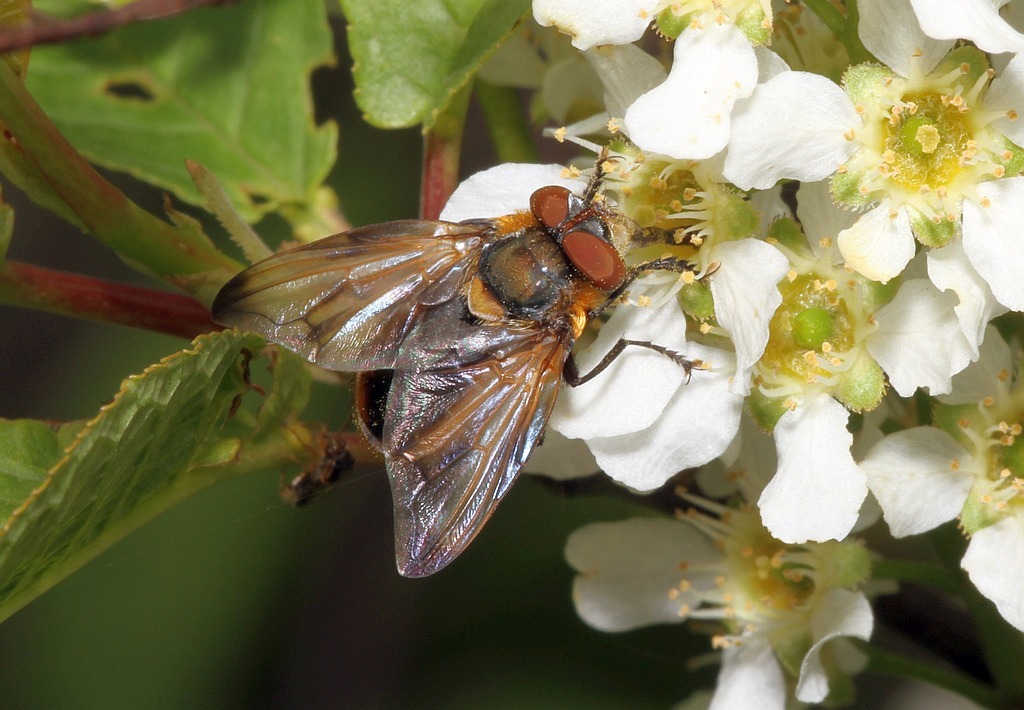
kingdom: Animalia
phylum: Arthropoda
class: Insecta
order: Diptera
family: Tachinidae
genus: Phasia
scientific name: Phasia hemiptera
